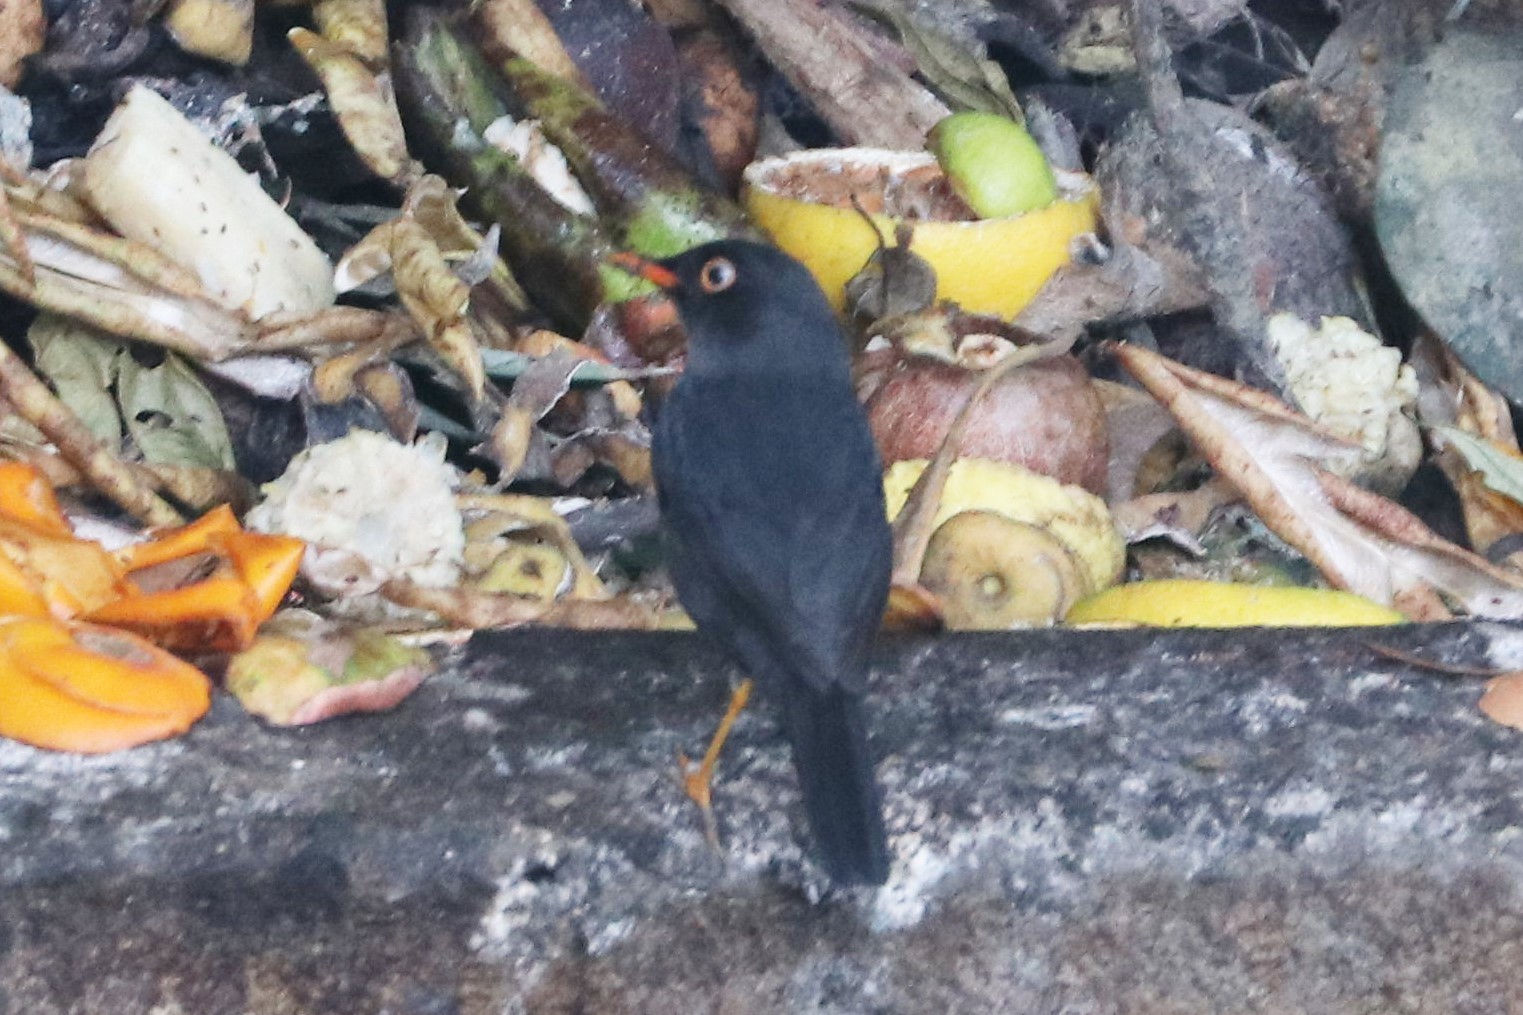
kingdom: Animalia
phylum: Chordata
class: Aves
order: Passeriformes
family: Turdidae
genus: Catharus
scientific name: Catharus fuscater
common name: Slaty-backed nightingale-thrush
